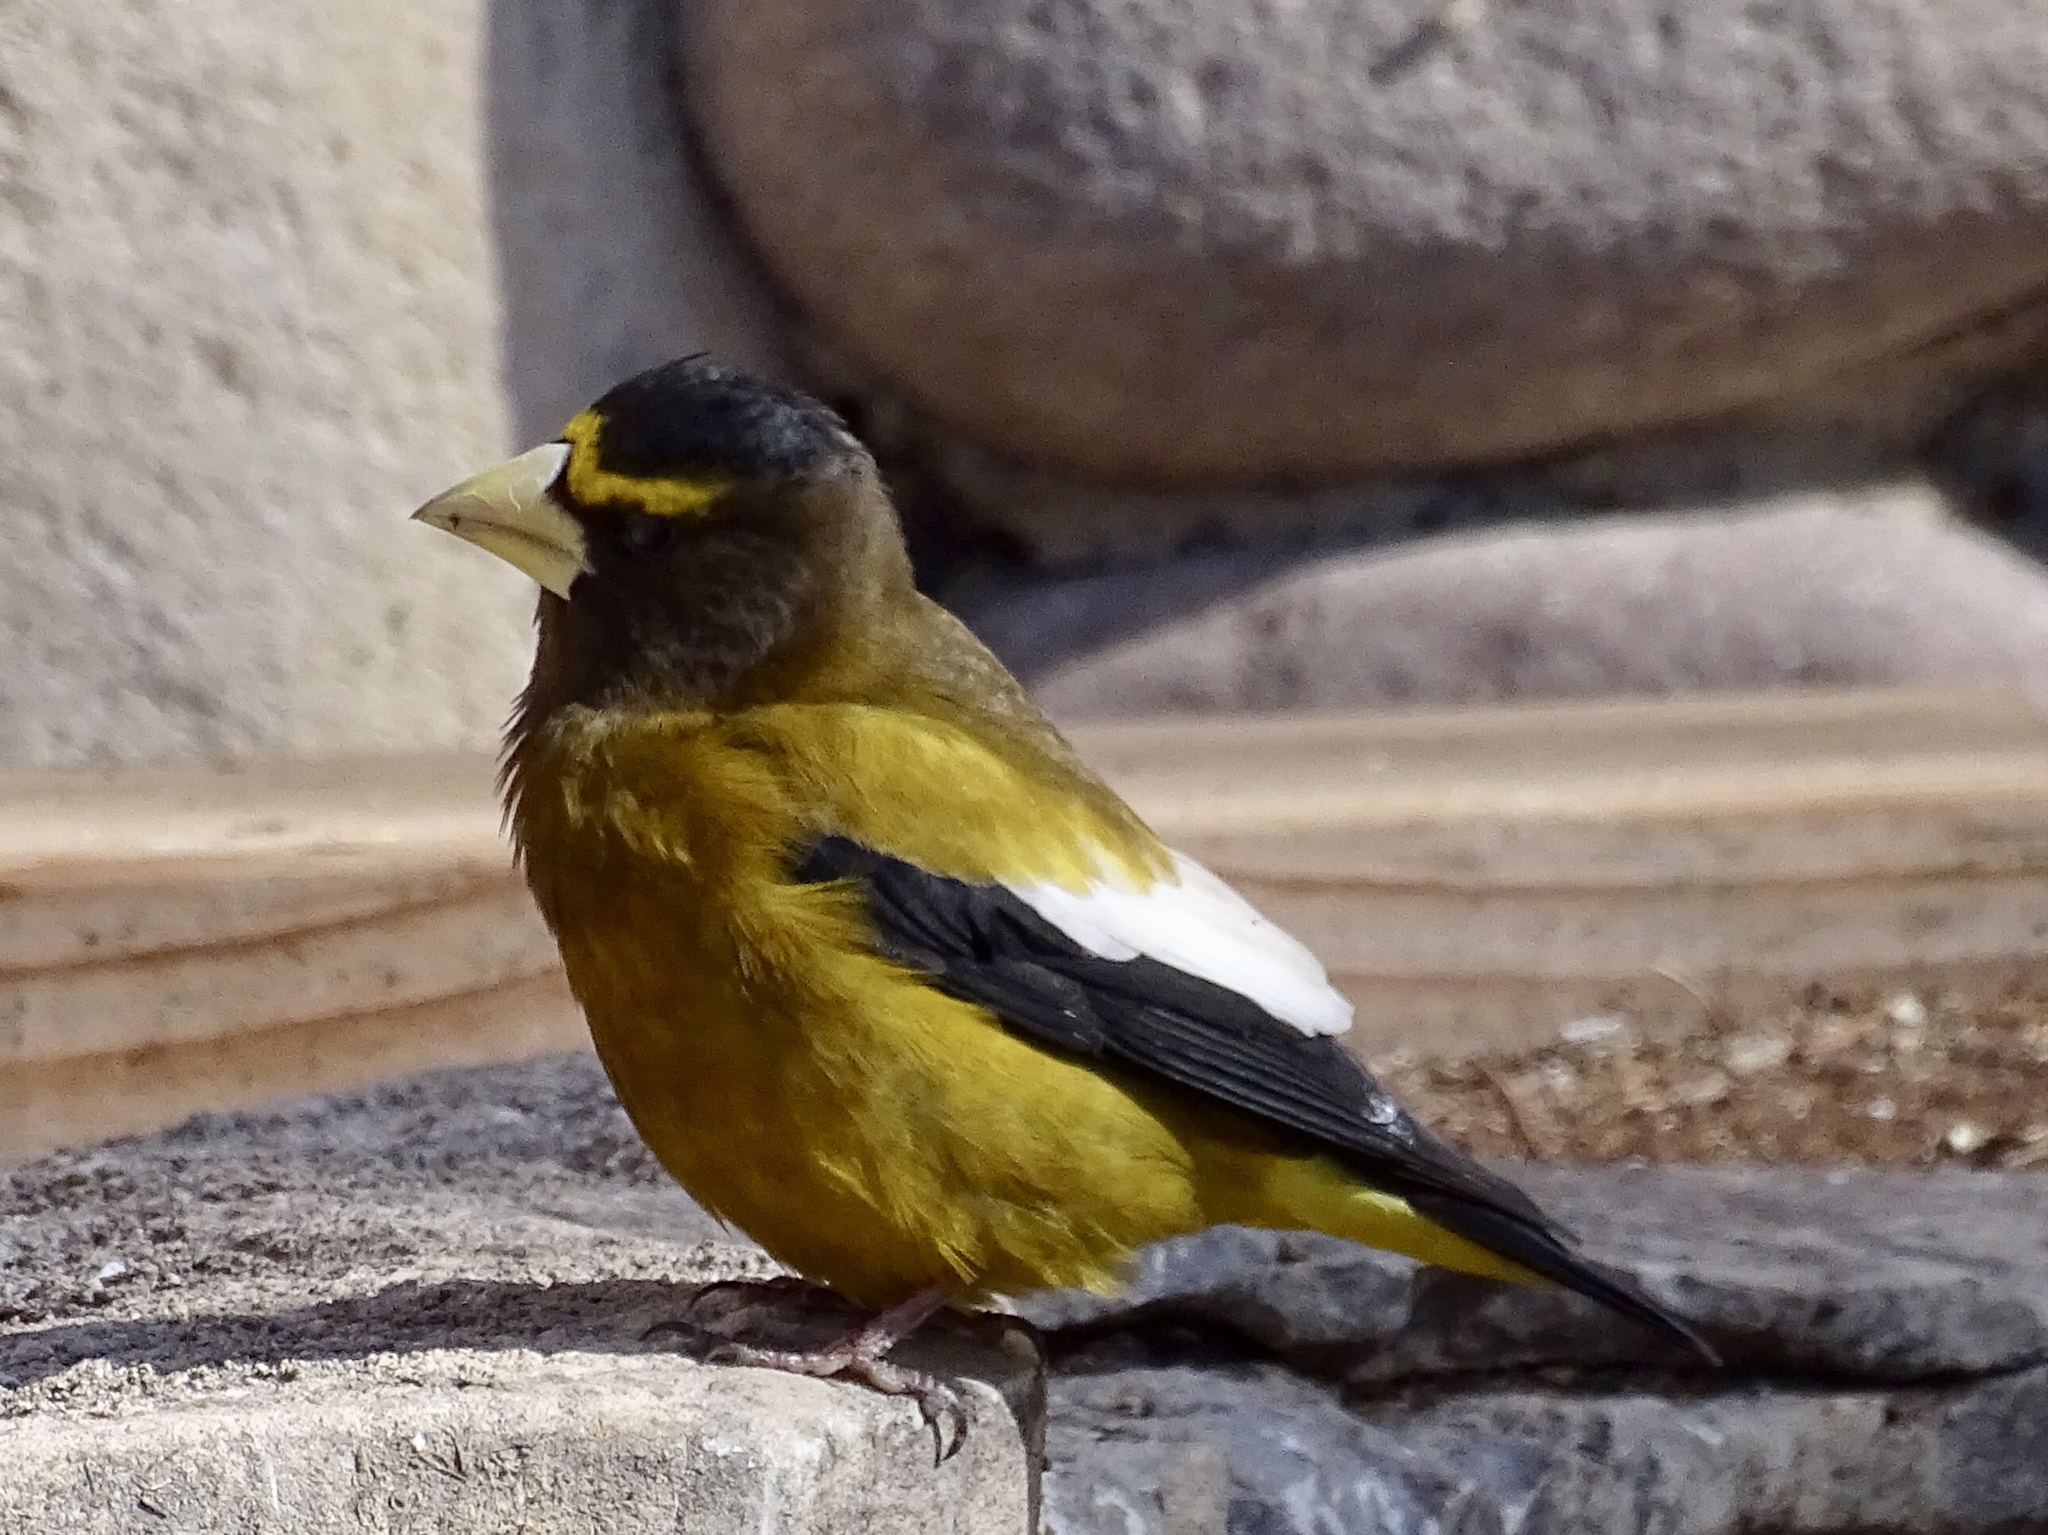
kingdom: Animalia
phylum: Chordata
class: Aves
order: Passeriformes
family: Fringillidae
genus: Hesperiphona
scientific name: Hesperiphona vespertina
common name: Evening grosbeak
